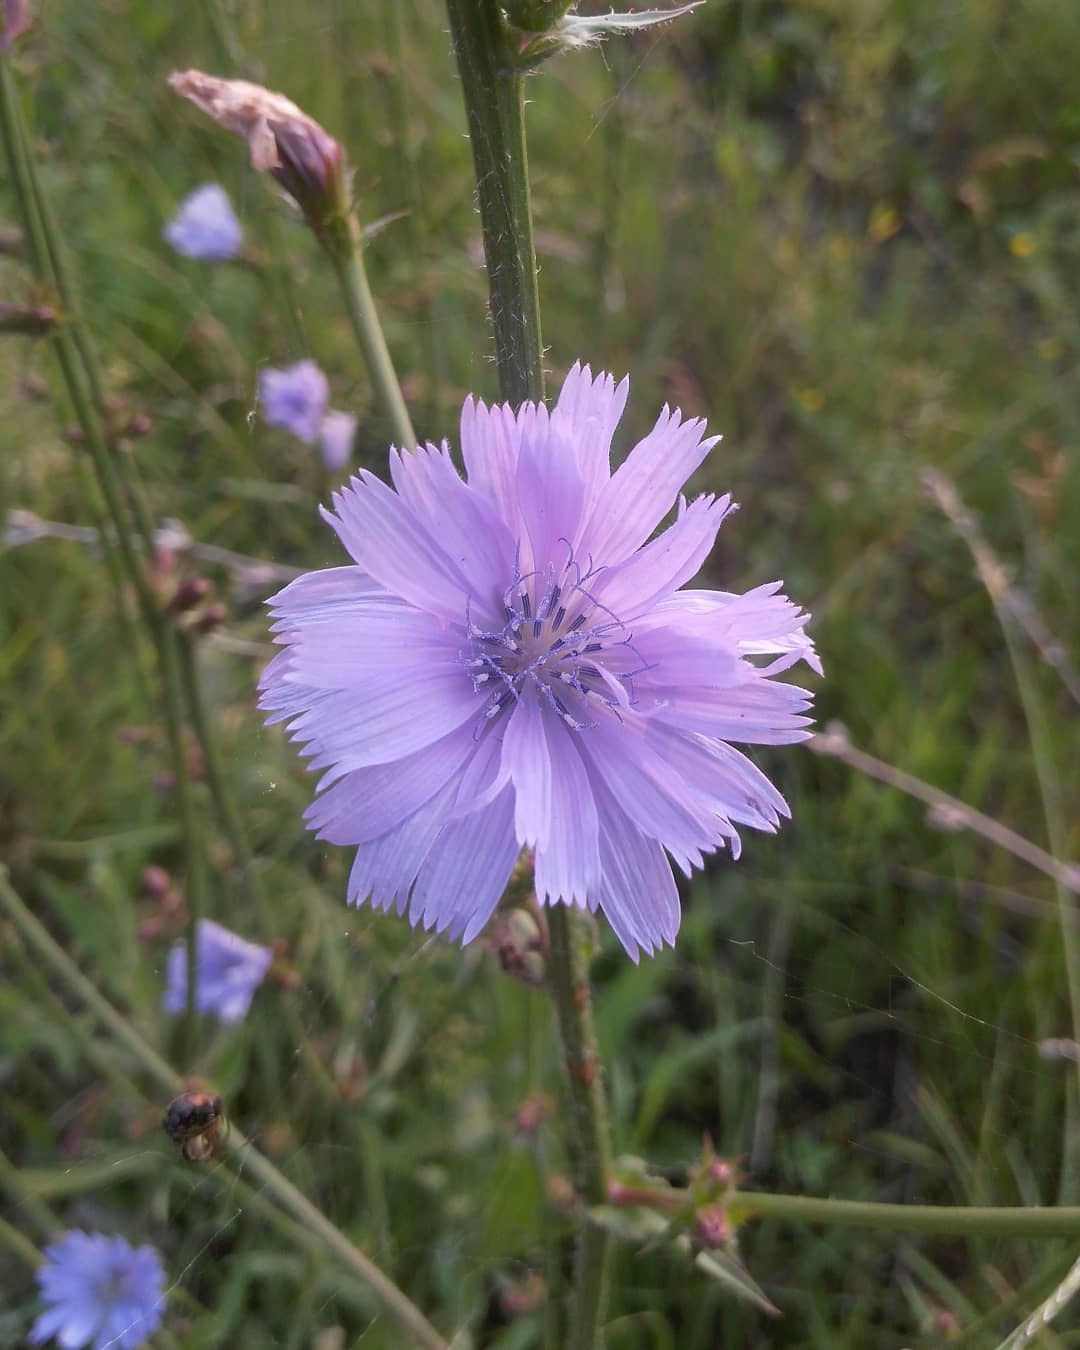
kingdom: Plantae
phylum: Tracheophyta
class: Magnoliopsida
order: Asterales
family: Asteraceae
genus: Cichorium
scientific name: Cichorium intybus
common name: Chicory
